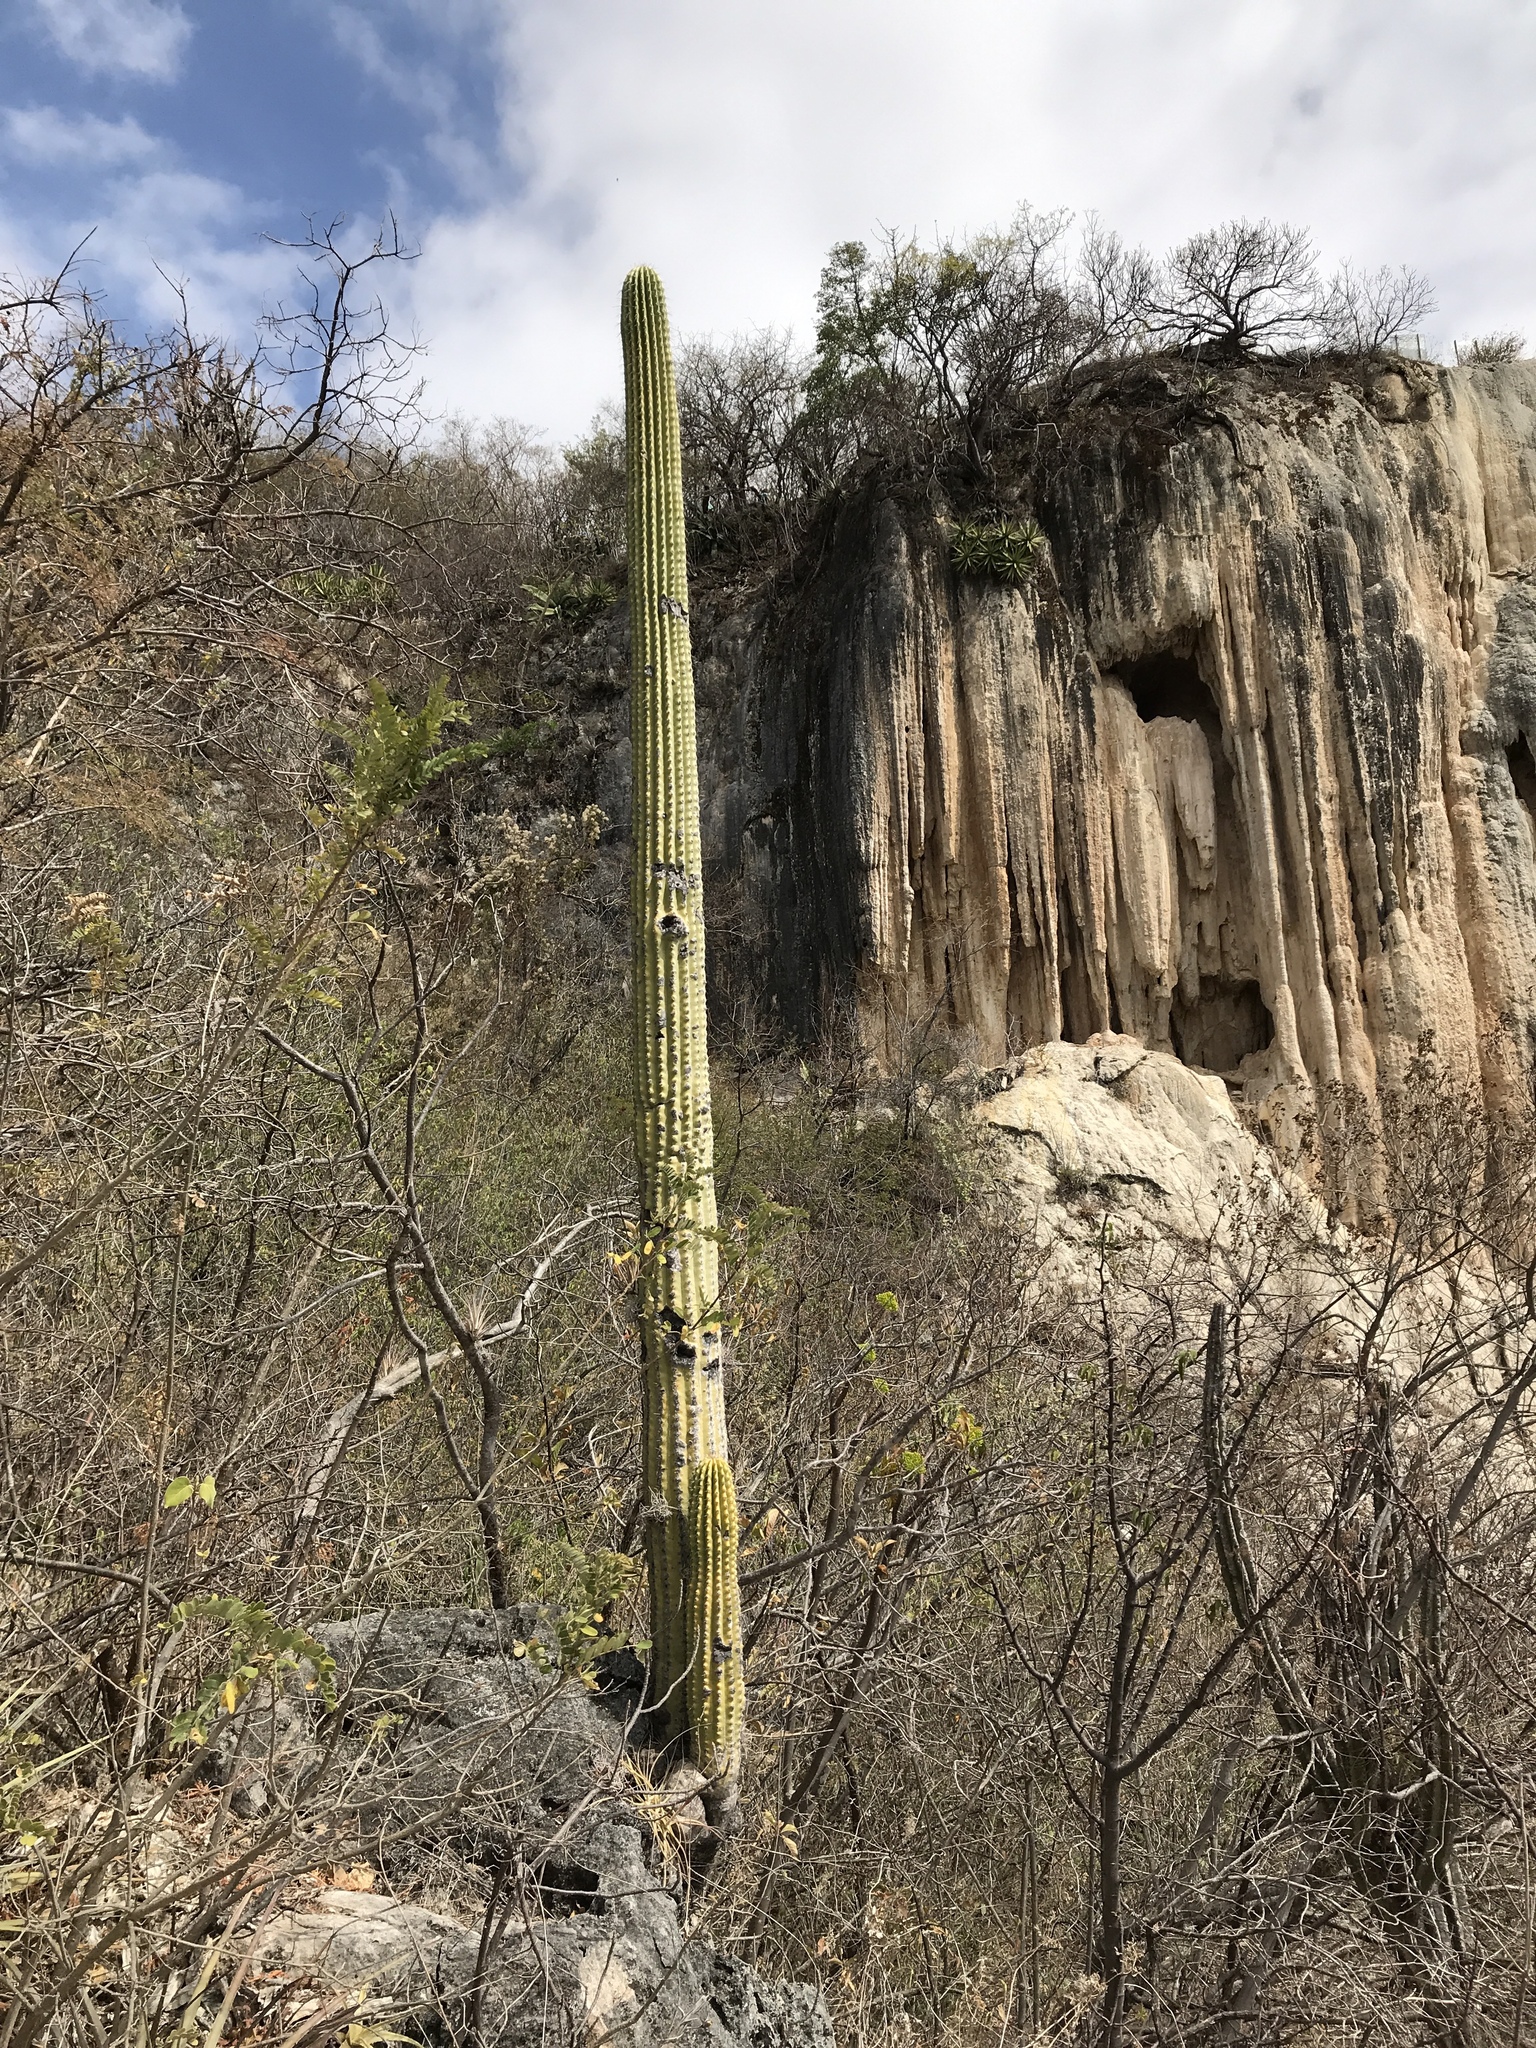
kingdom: Plantae
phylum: Tracheophyta
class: Magnoliopsida
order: Caryophyllales
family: Cactaceae
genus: Cephalocereus
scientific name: Cephalocereus nudus
